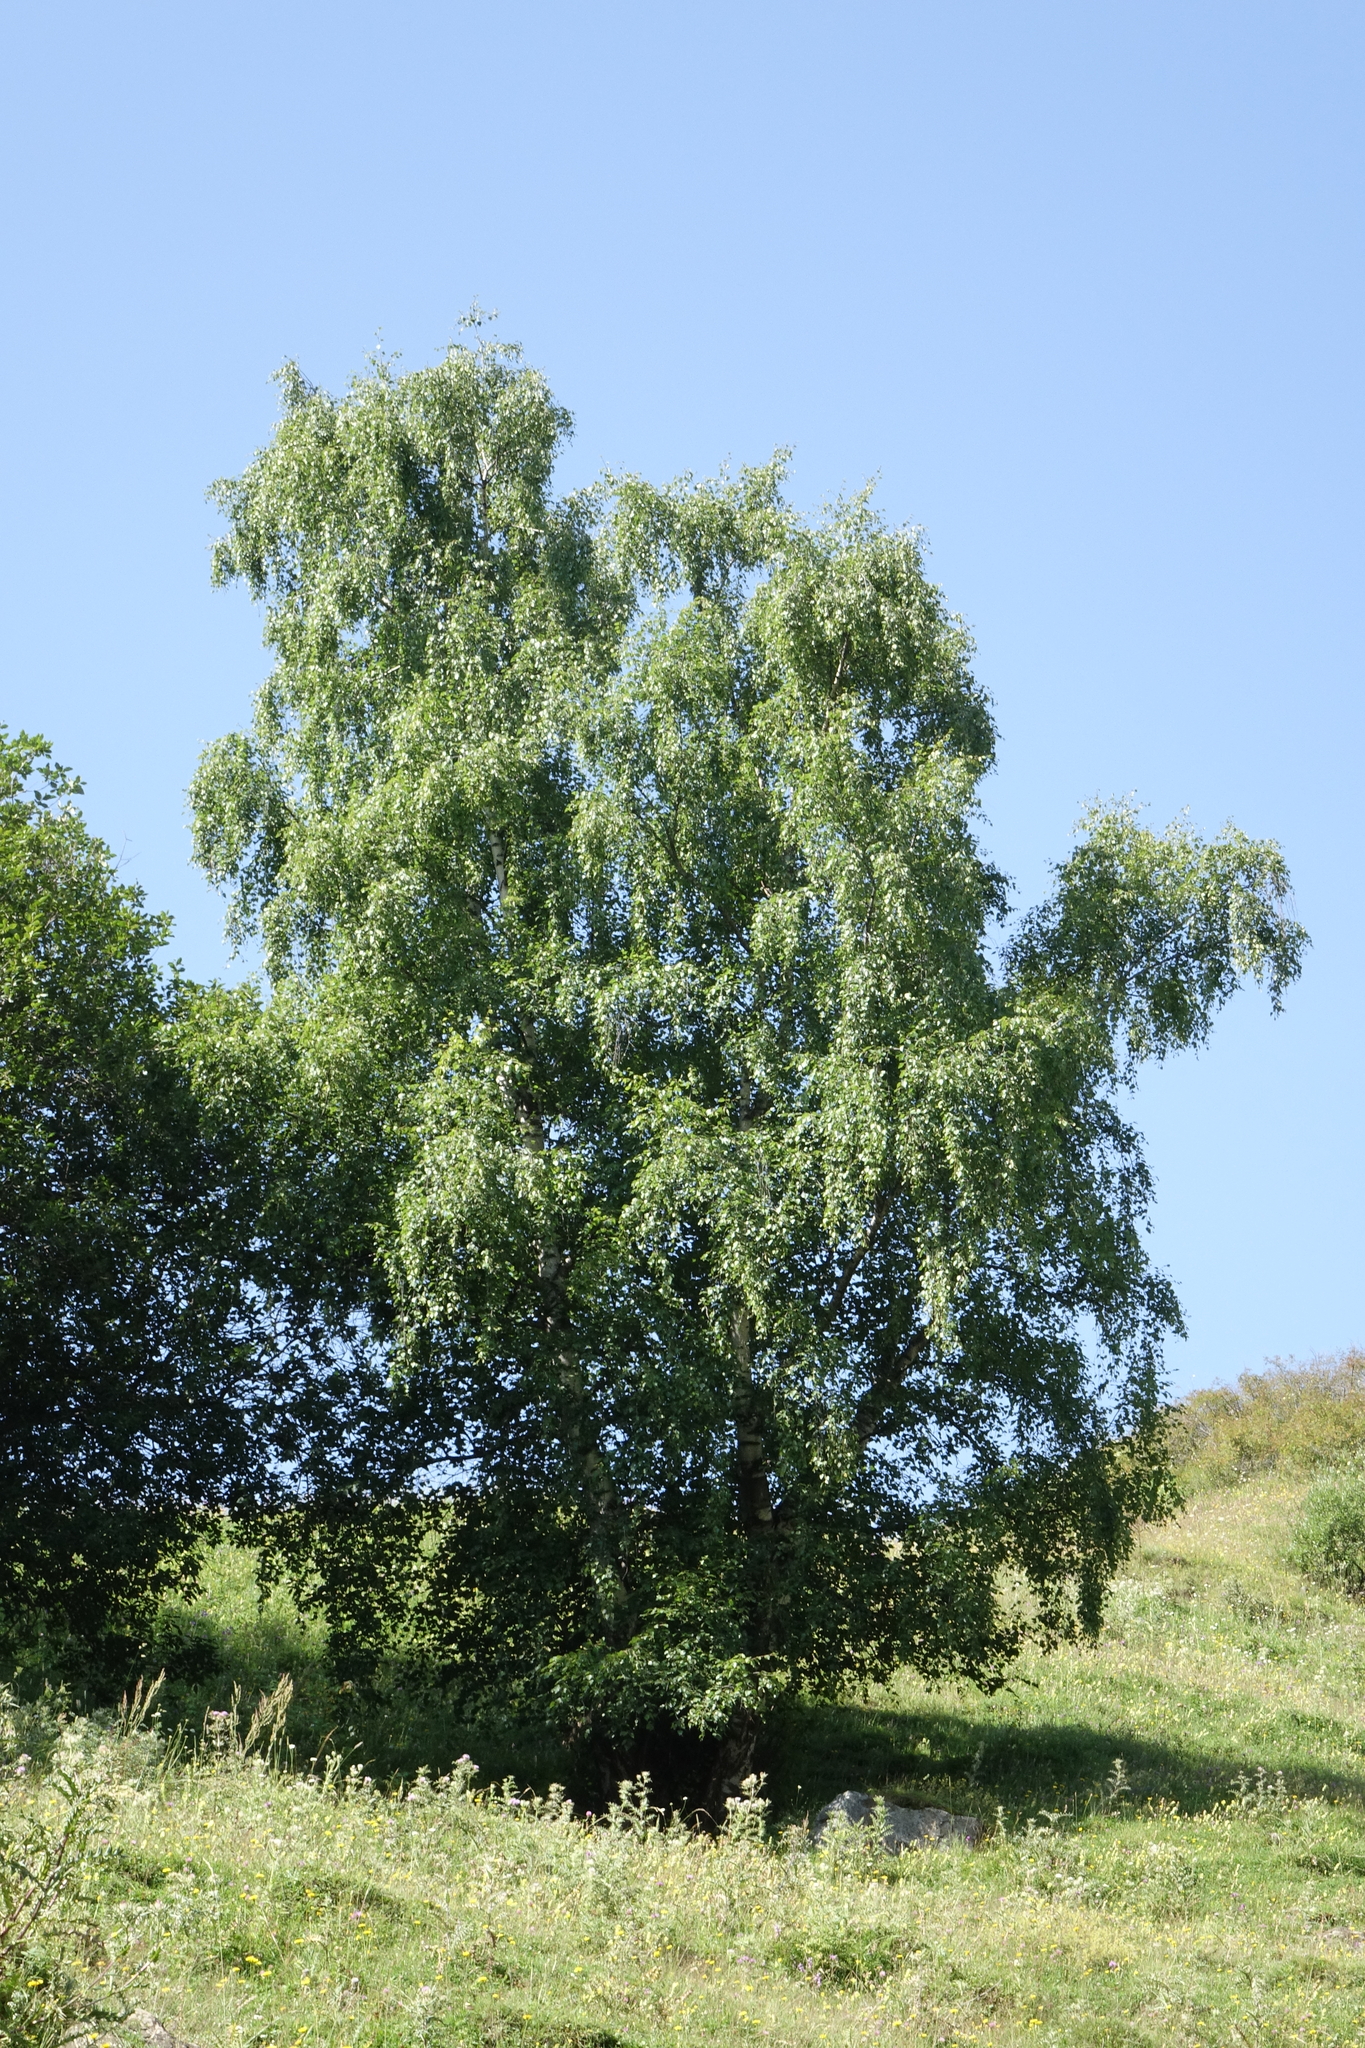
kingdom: Plantae
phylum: Tracheophyta
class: Magnoliopsida
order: Fagales
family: Betulaceae
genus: Betula
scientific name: Betula pendula
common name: Silver birch
